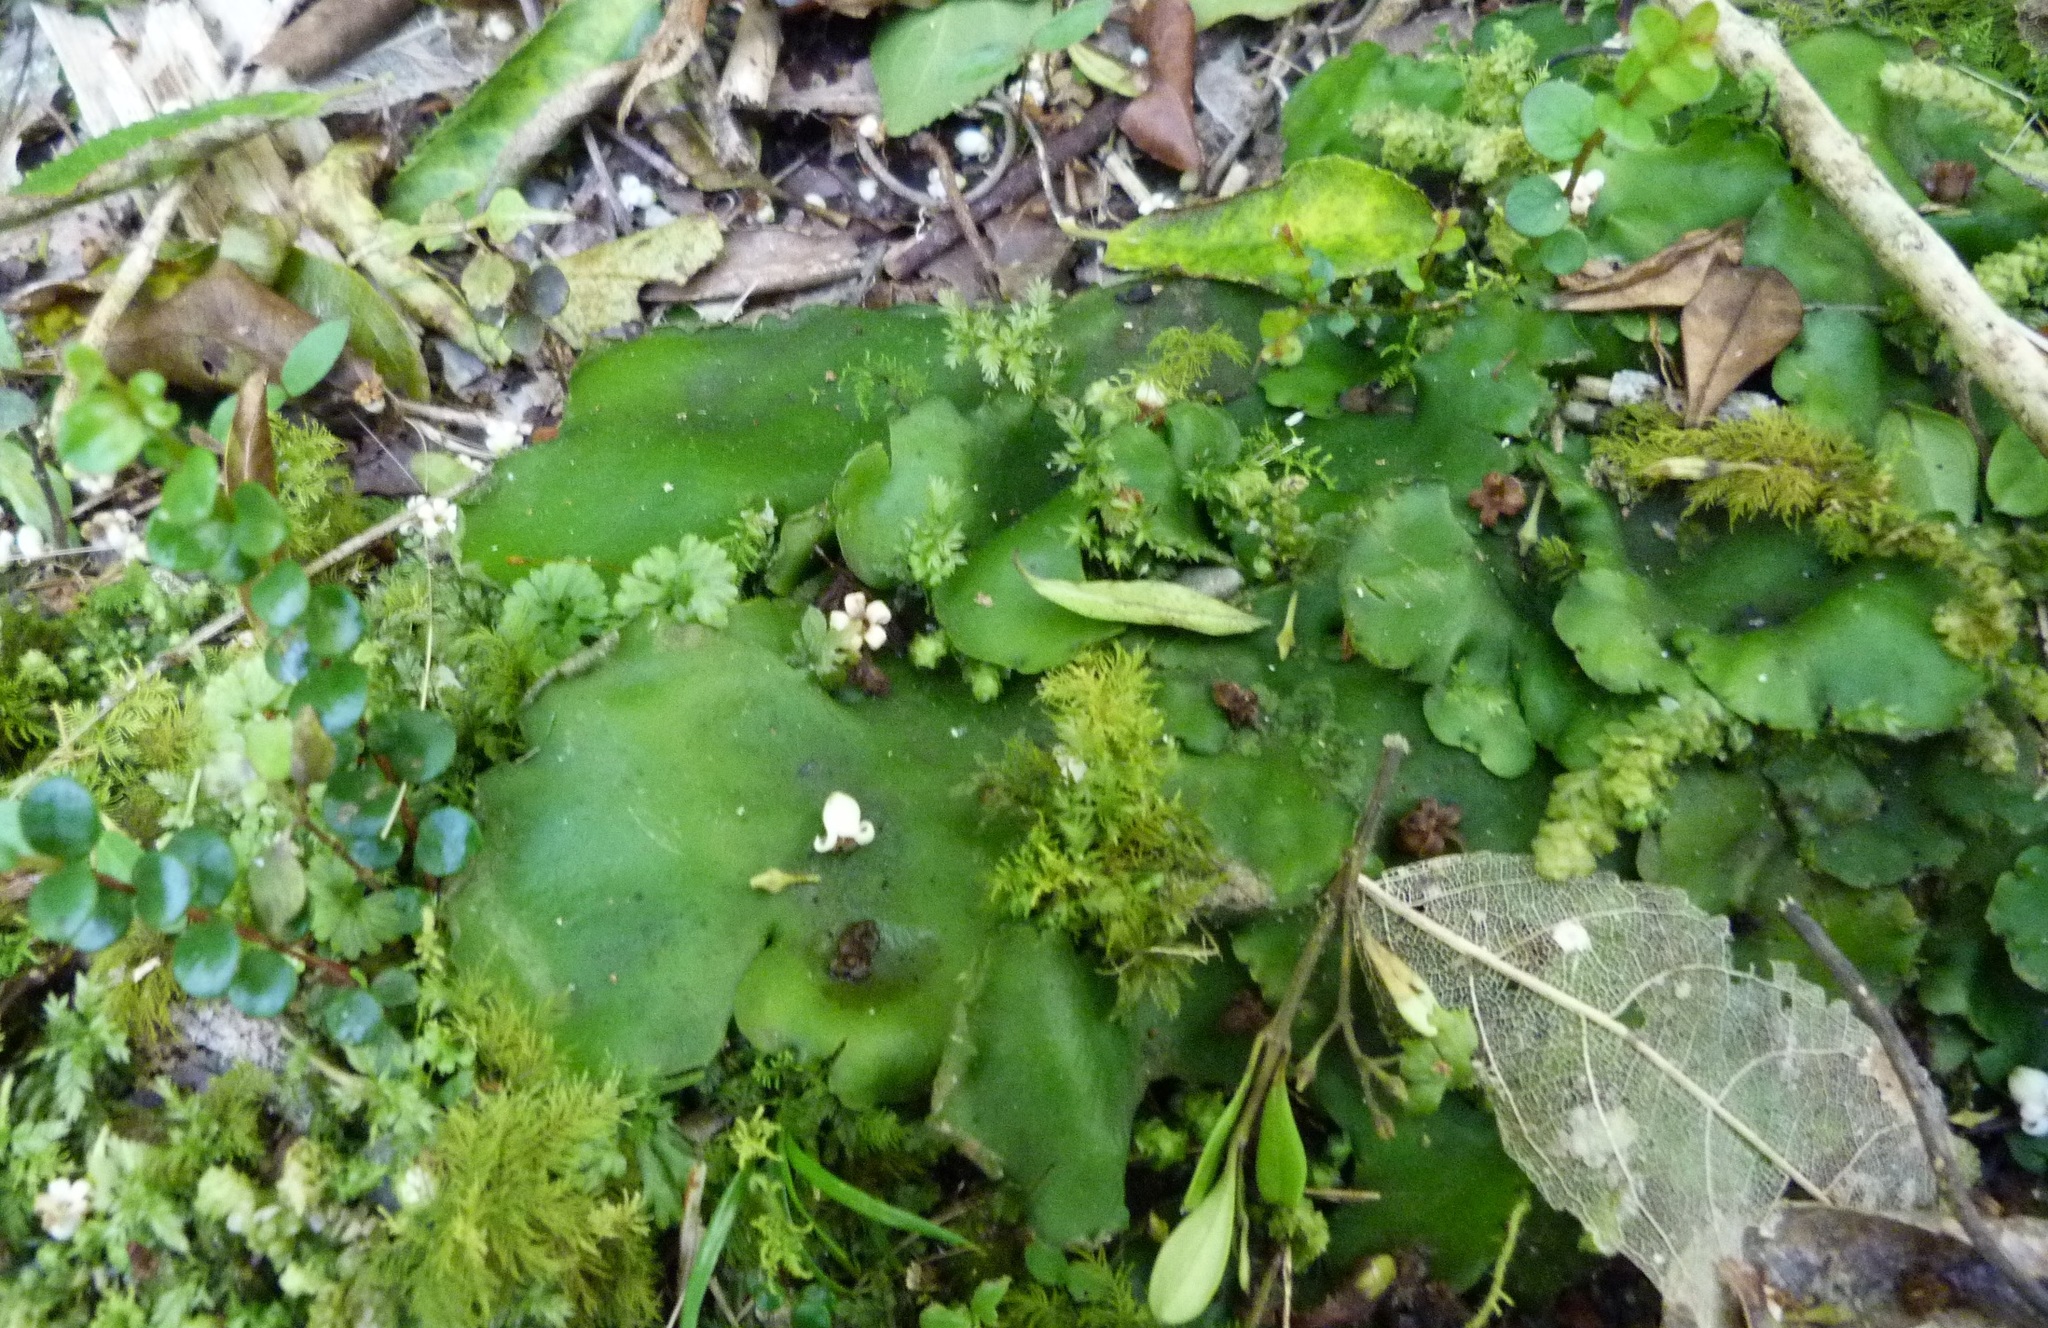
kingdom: Plantae
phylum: Marchantiophyta
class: Jungermanniopsida
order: Pallaviciniales
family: Hymenophytaceae
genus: Hymenophyton
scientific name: Hymenophyton flabellatum
